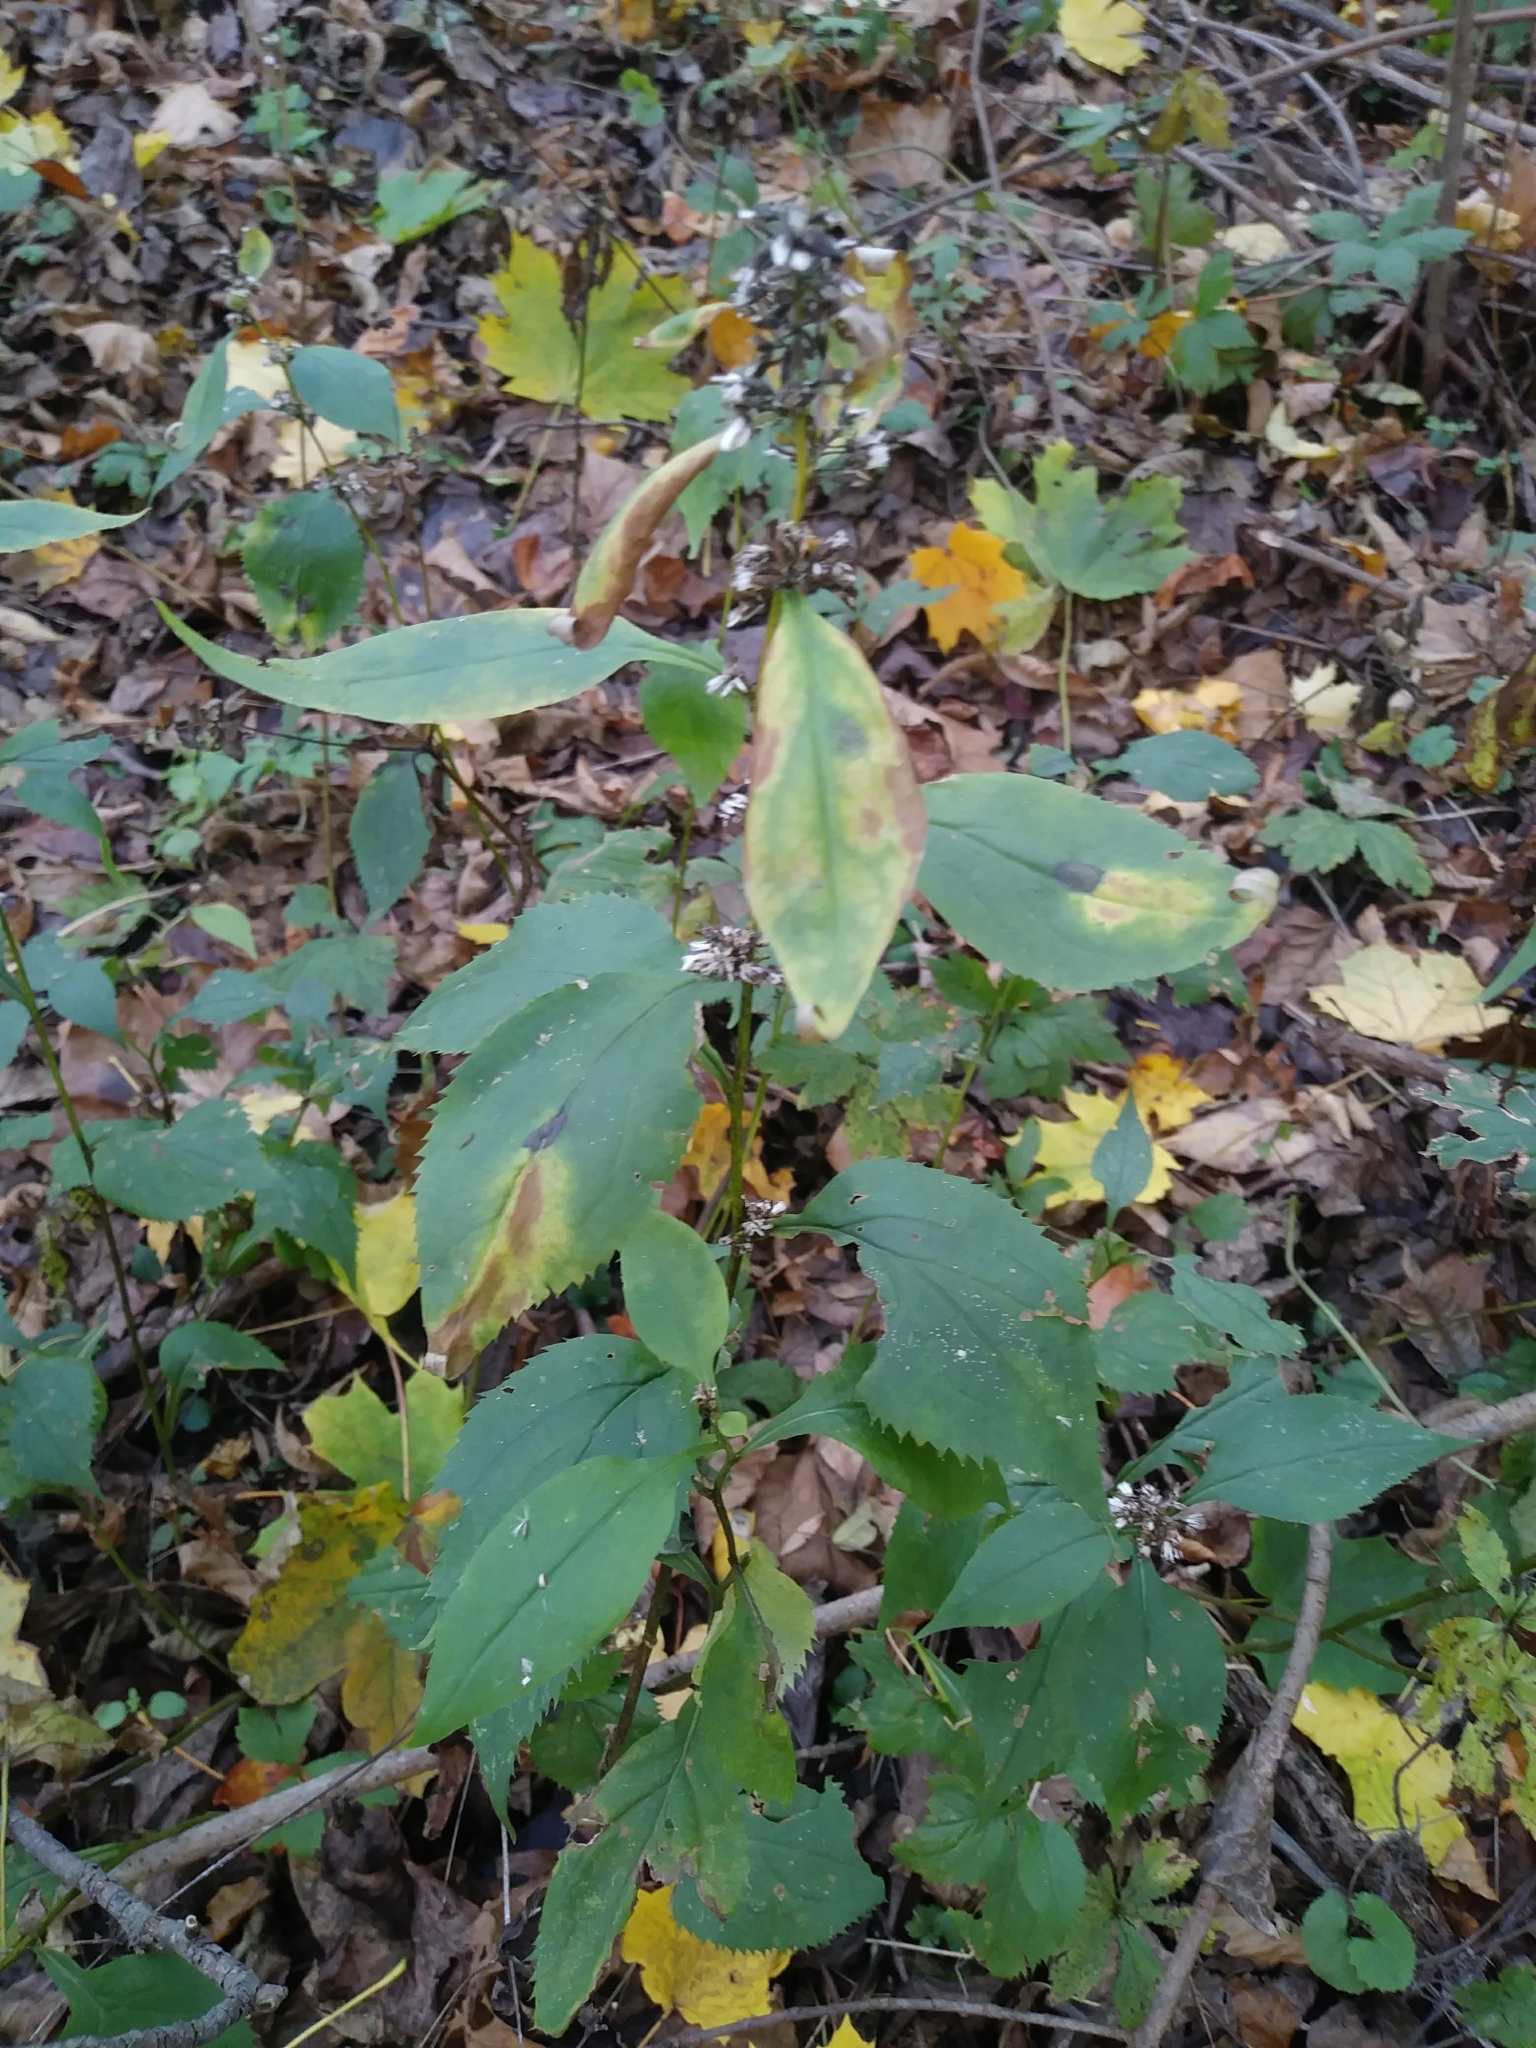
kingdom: Plantae
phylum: Tracheophyta
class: Magnoliopsida
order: Asterales
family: Asteraceae
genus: Solidago
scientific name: Solidago flexicaulis
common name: Zig-zag goldenrod
